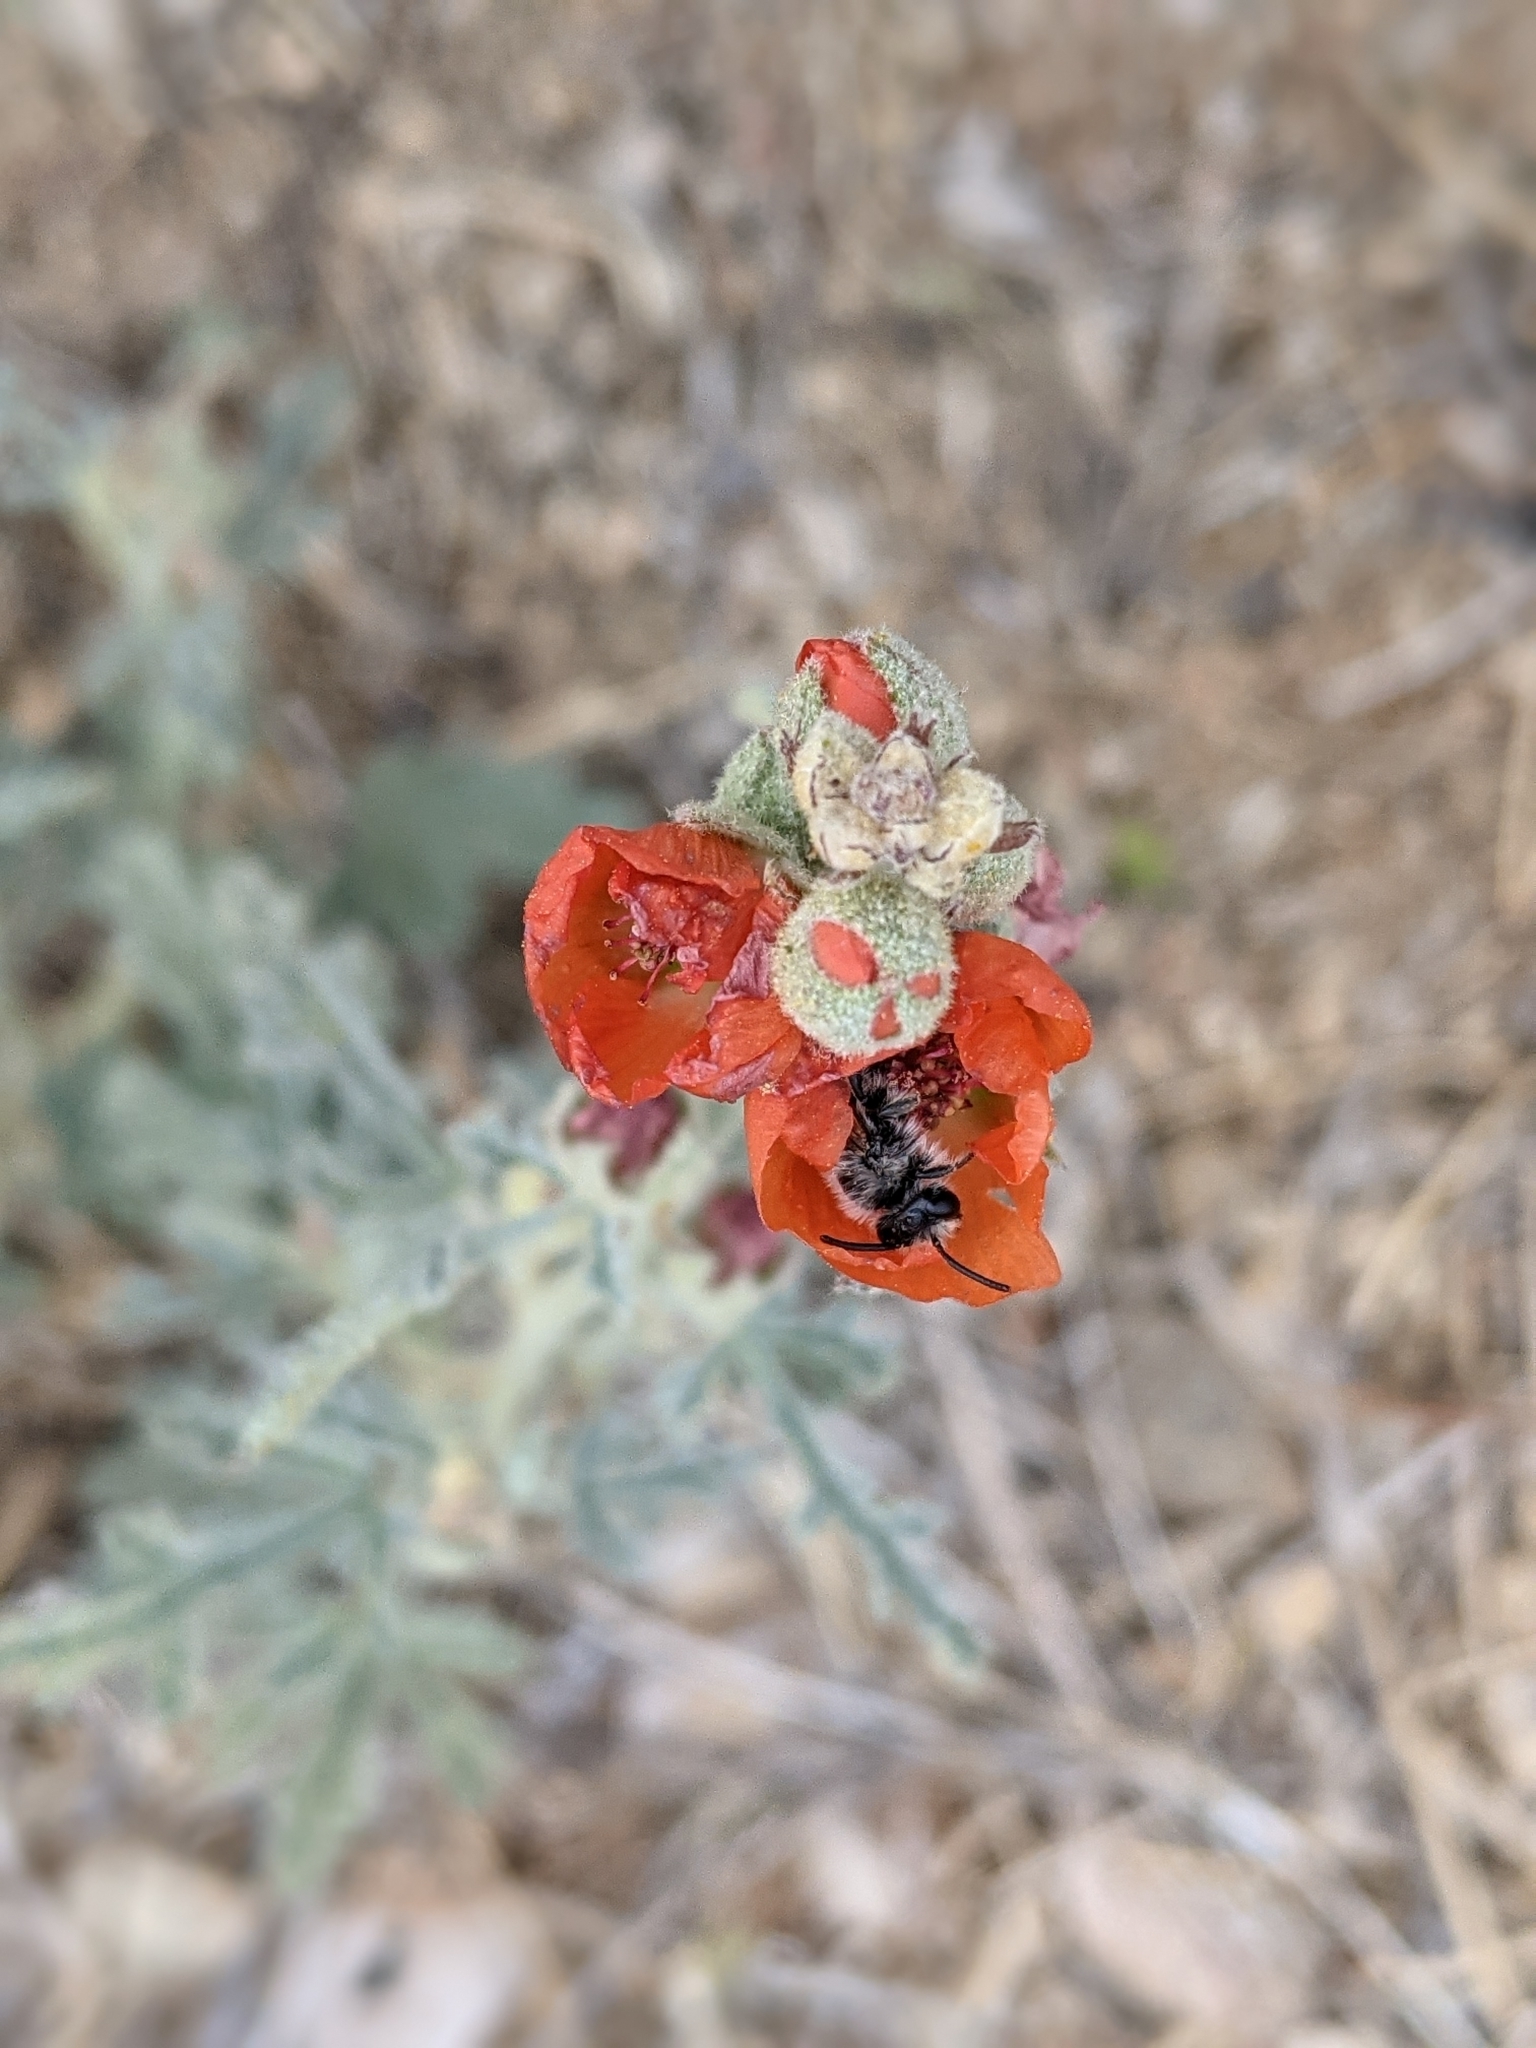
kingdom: Animalia
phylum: Arthropoda
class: Insecta
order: Hymenoptera
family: Andrenidae
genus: Andrena
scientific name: Andrena sphaeralceae
